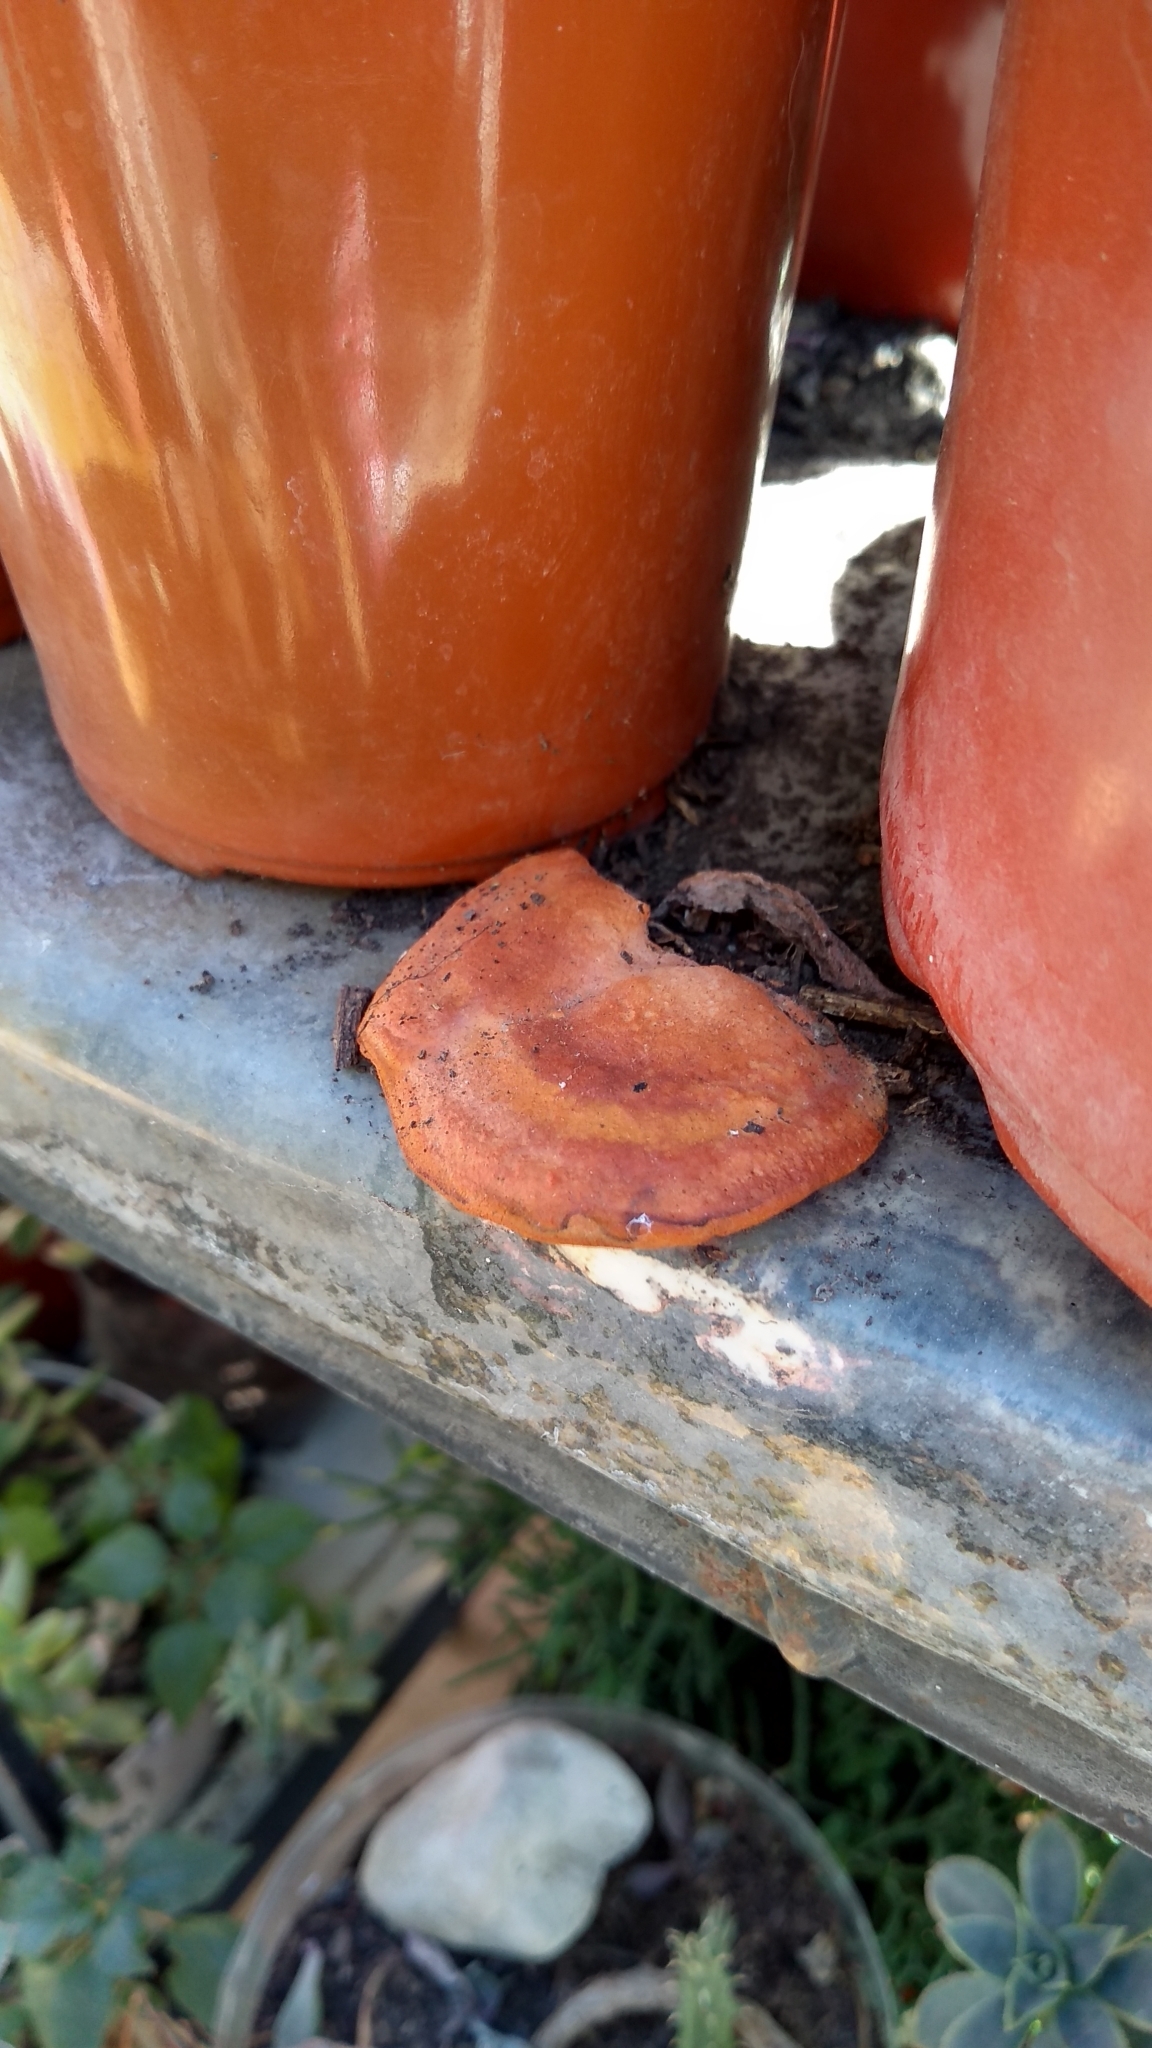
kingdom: Fungi
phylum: Basidiomycota
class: Agaricomycetes
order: Polyporales
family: Polyporaceae
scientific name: Polyporaceae
